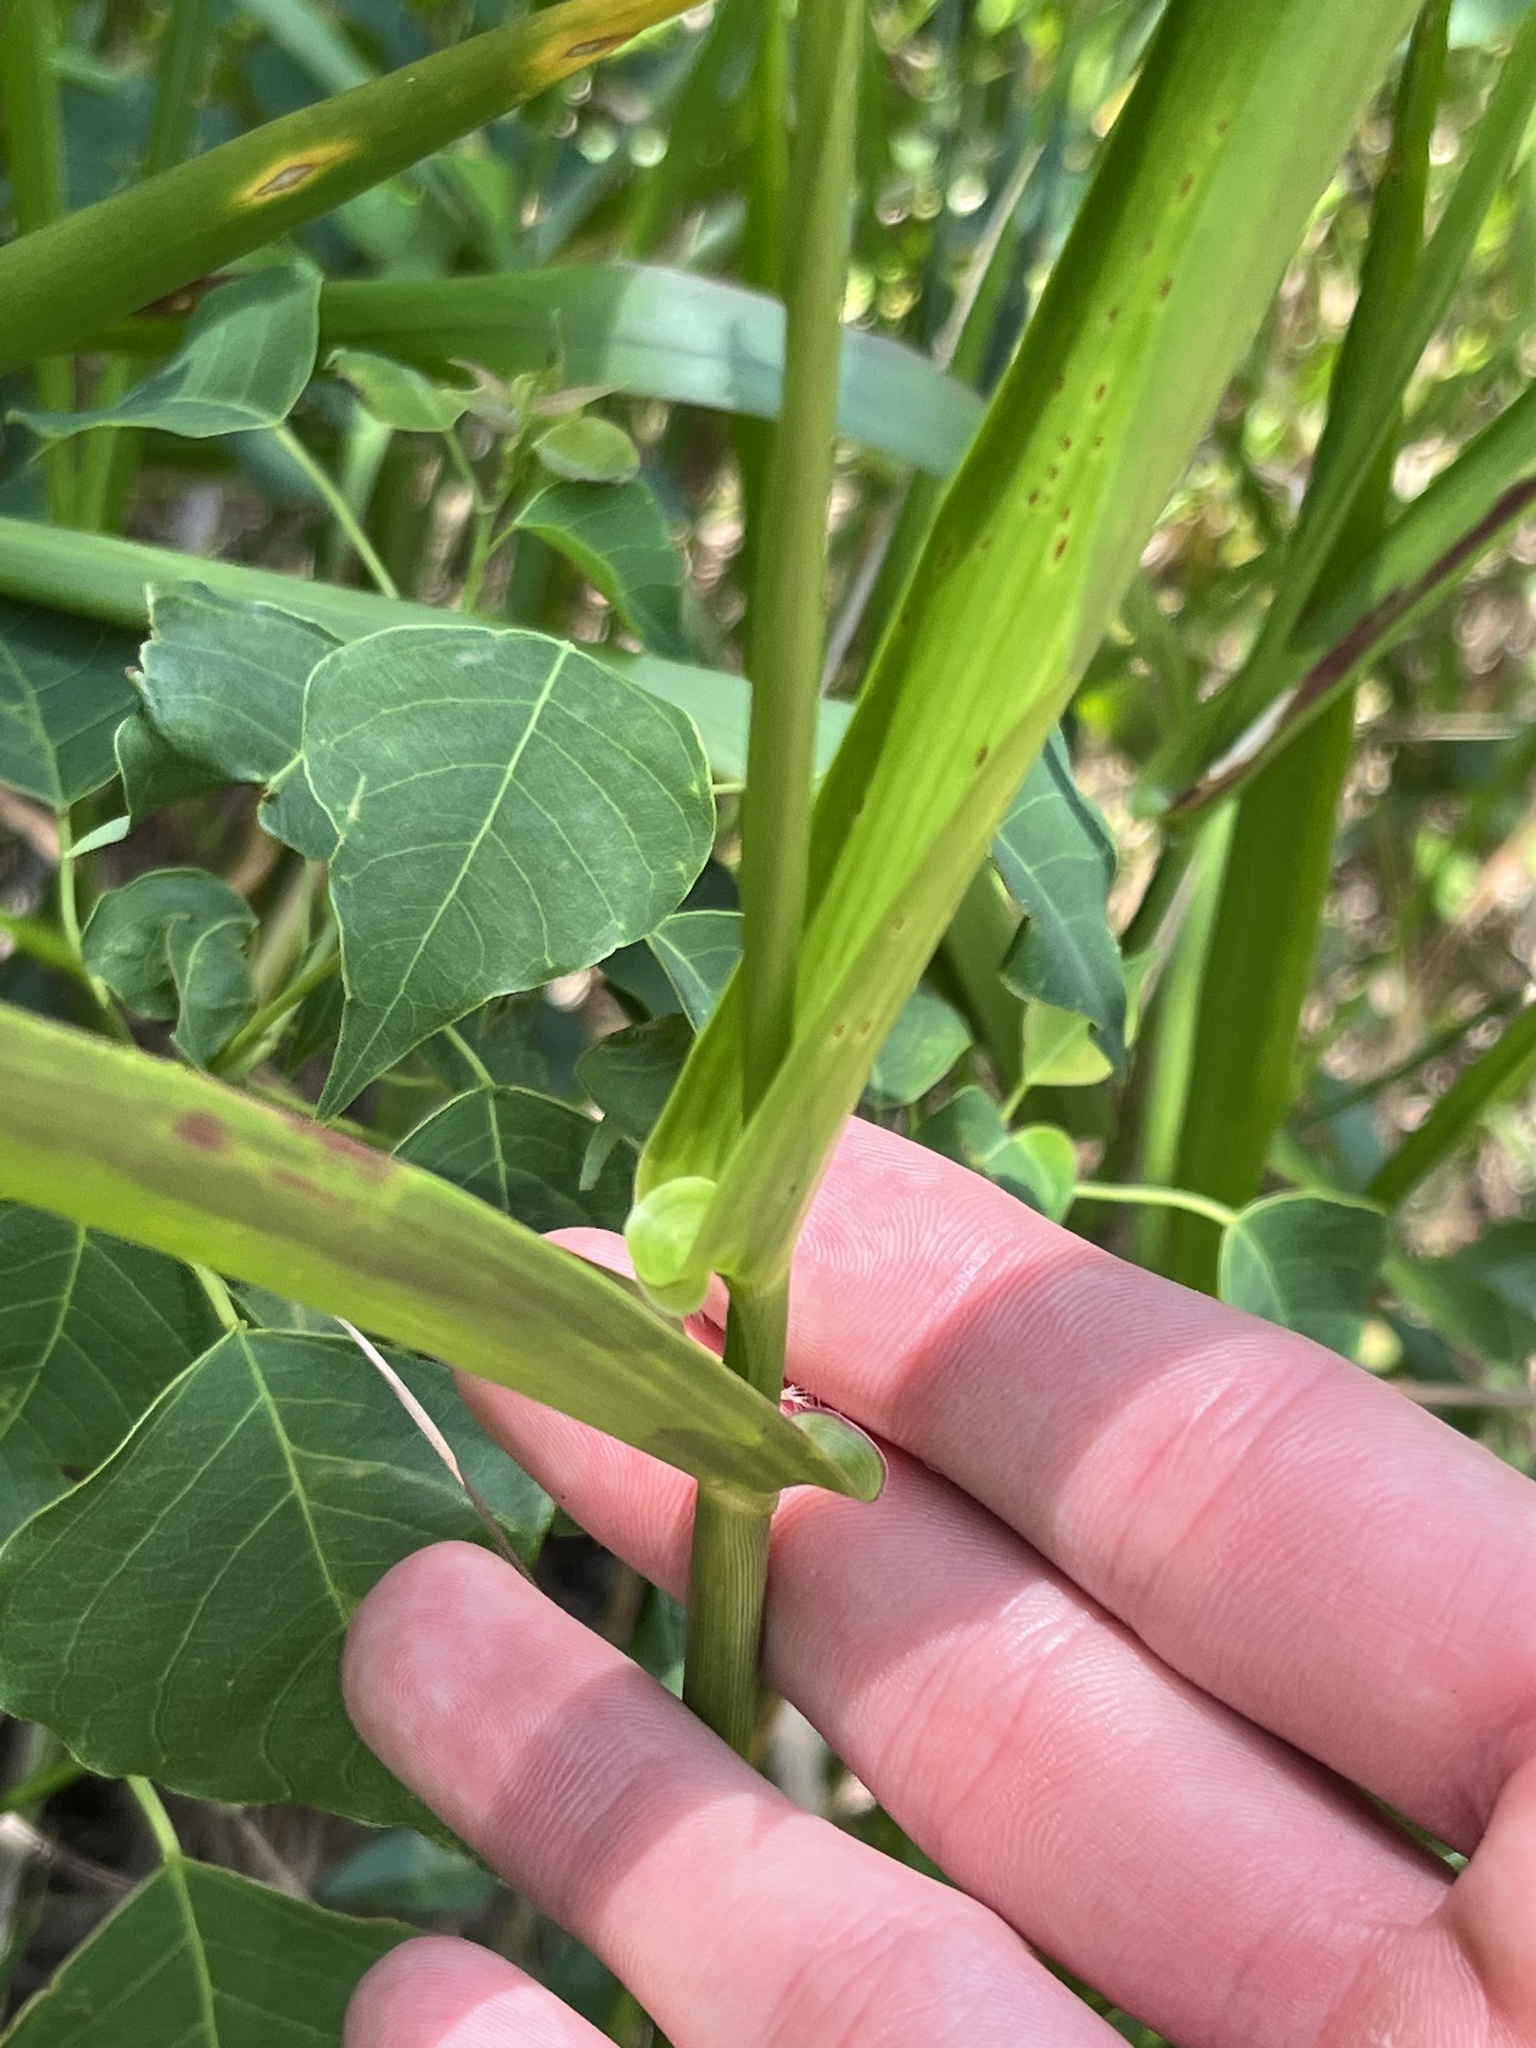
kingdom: Plantae
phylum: Tracheophyta
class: Liliopsida
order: Poales
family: Poaceae
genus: Hymenachne
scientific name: Hymenachne amplexicaulis
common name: Olive hymenachne
